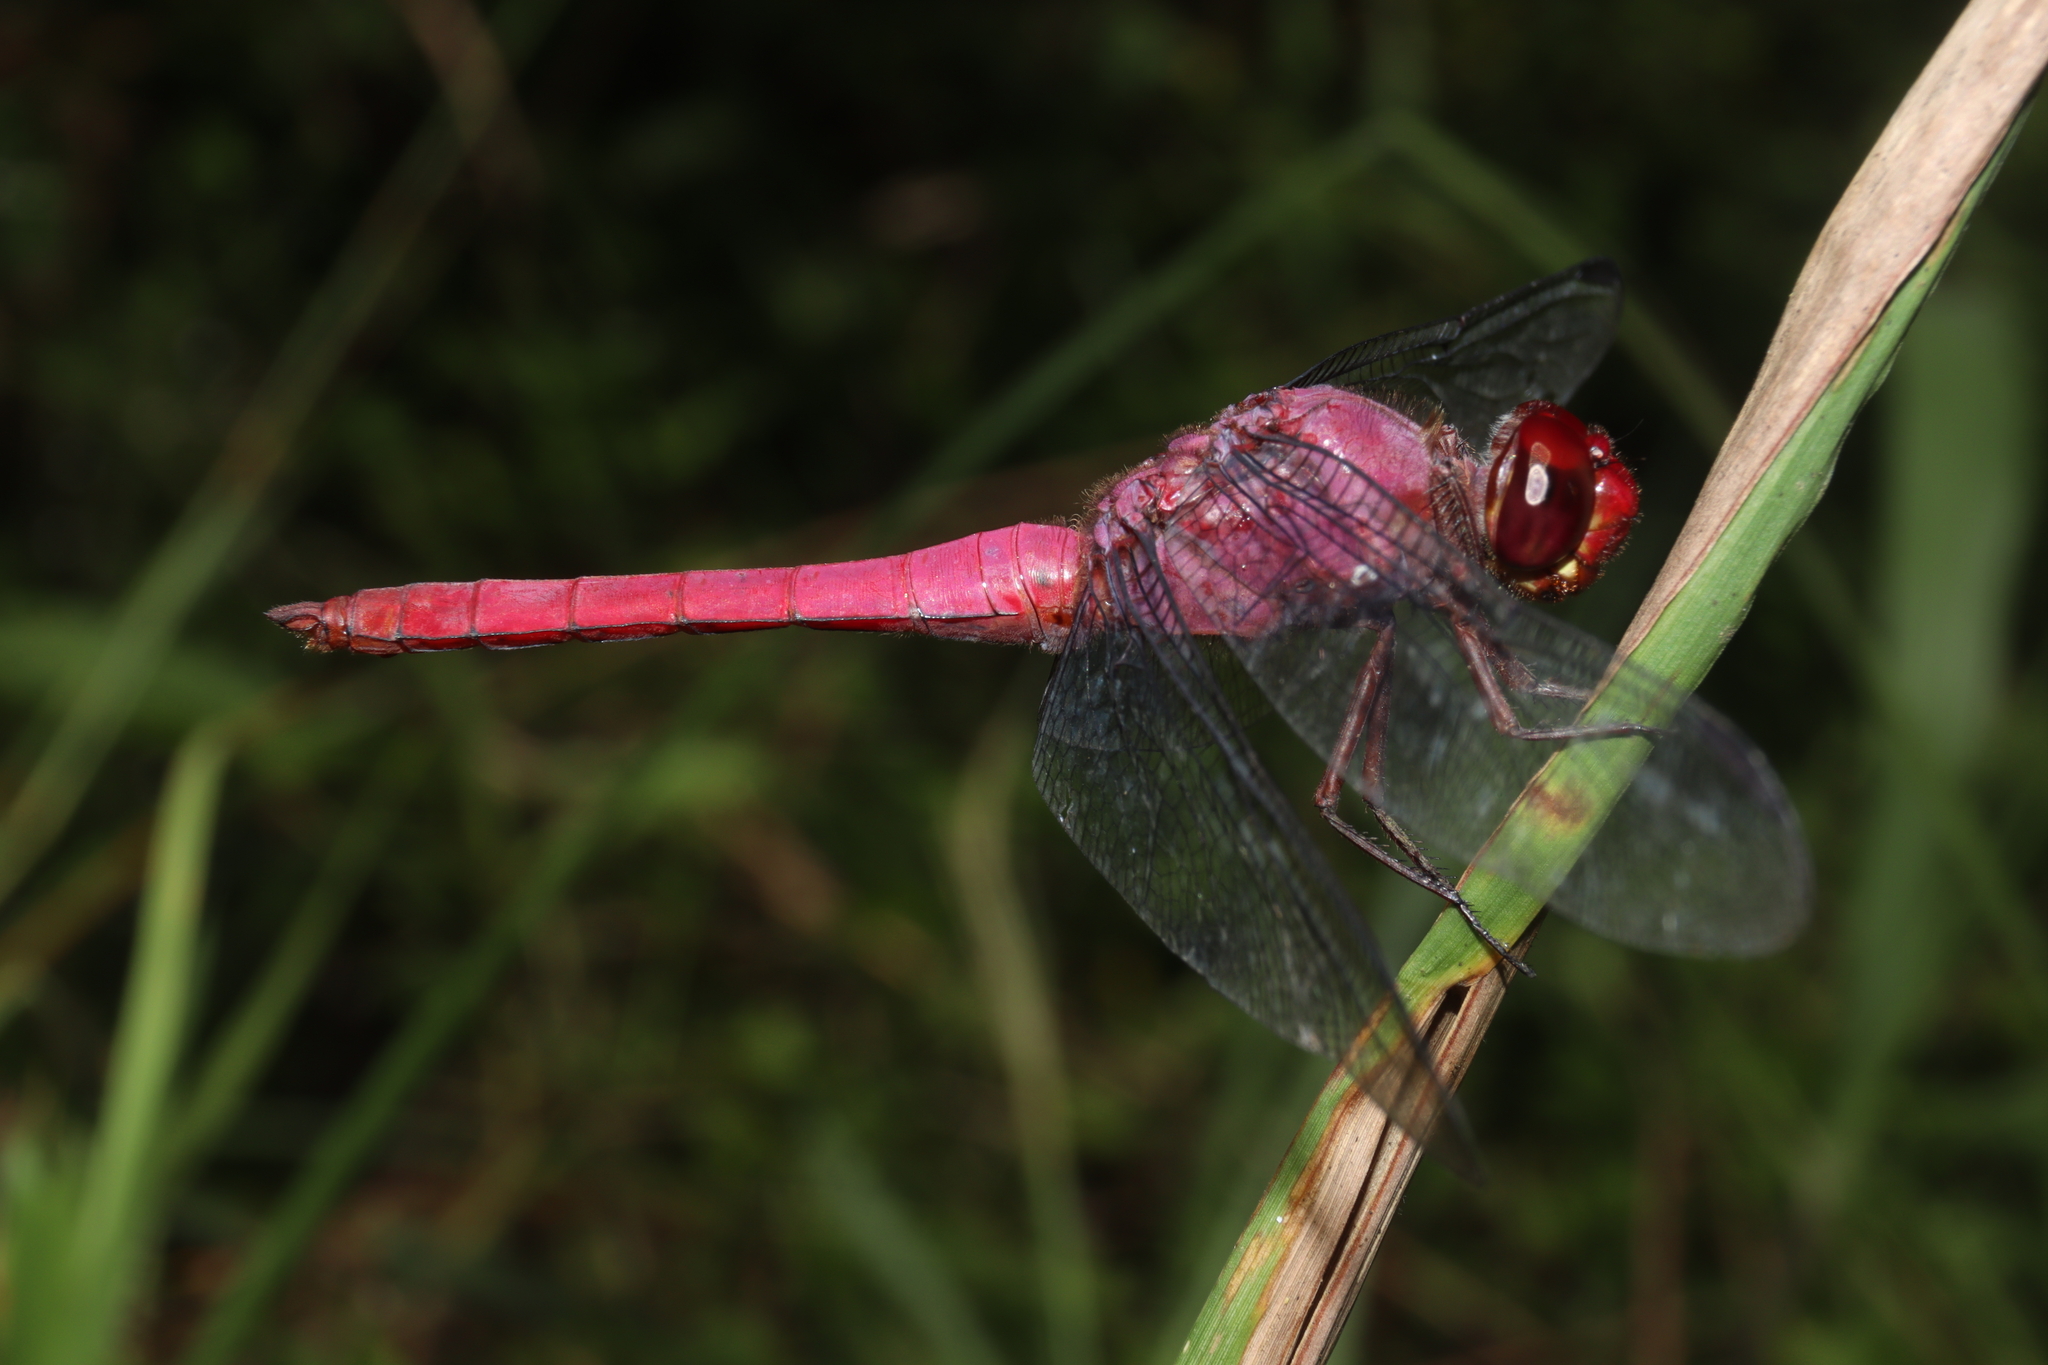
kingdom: Animalia
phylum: Arthropoda
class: Insecta
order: Odonata
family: Libellulidae
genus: Orthemis
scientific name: Orthemis discolor
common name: Carmine skimmer
